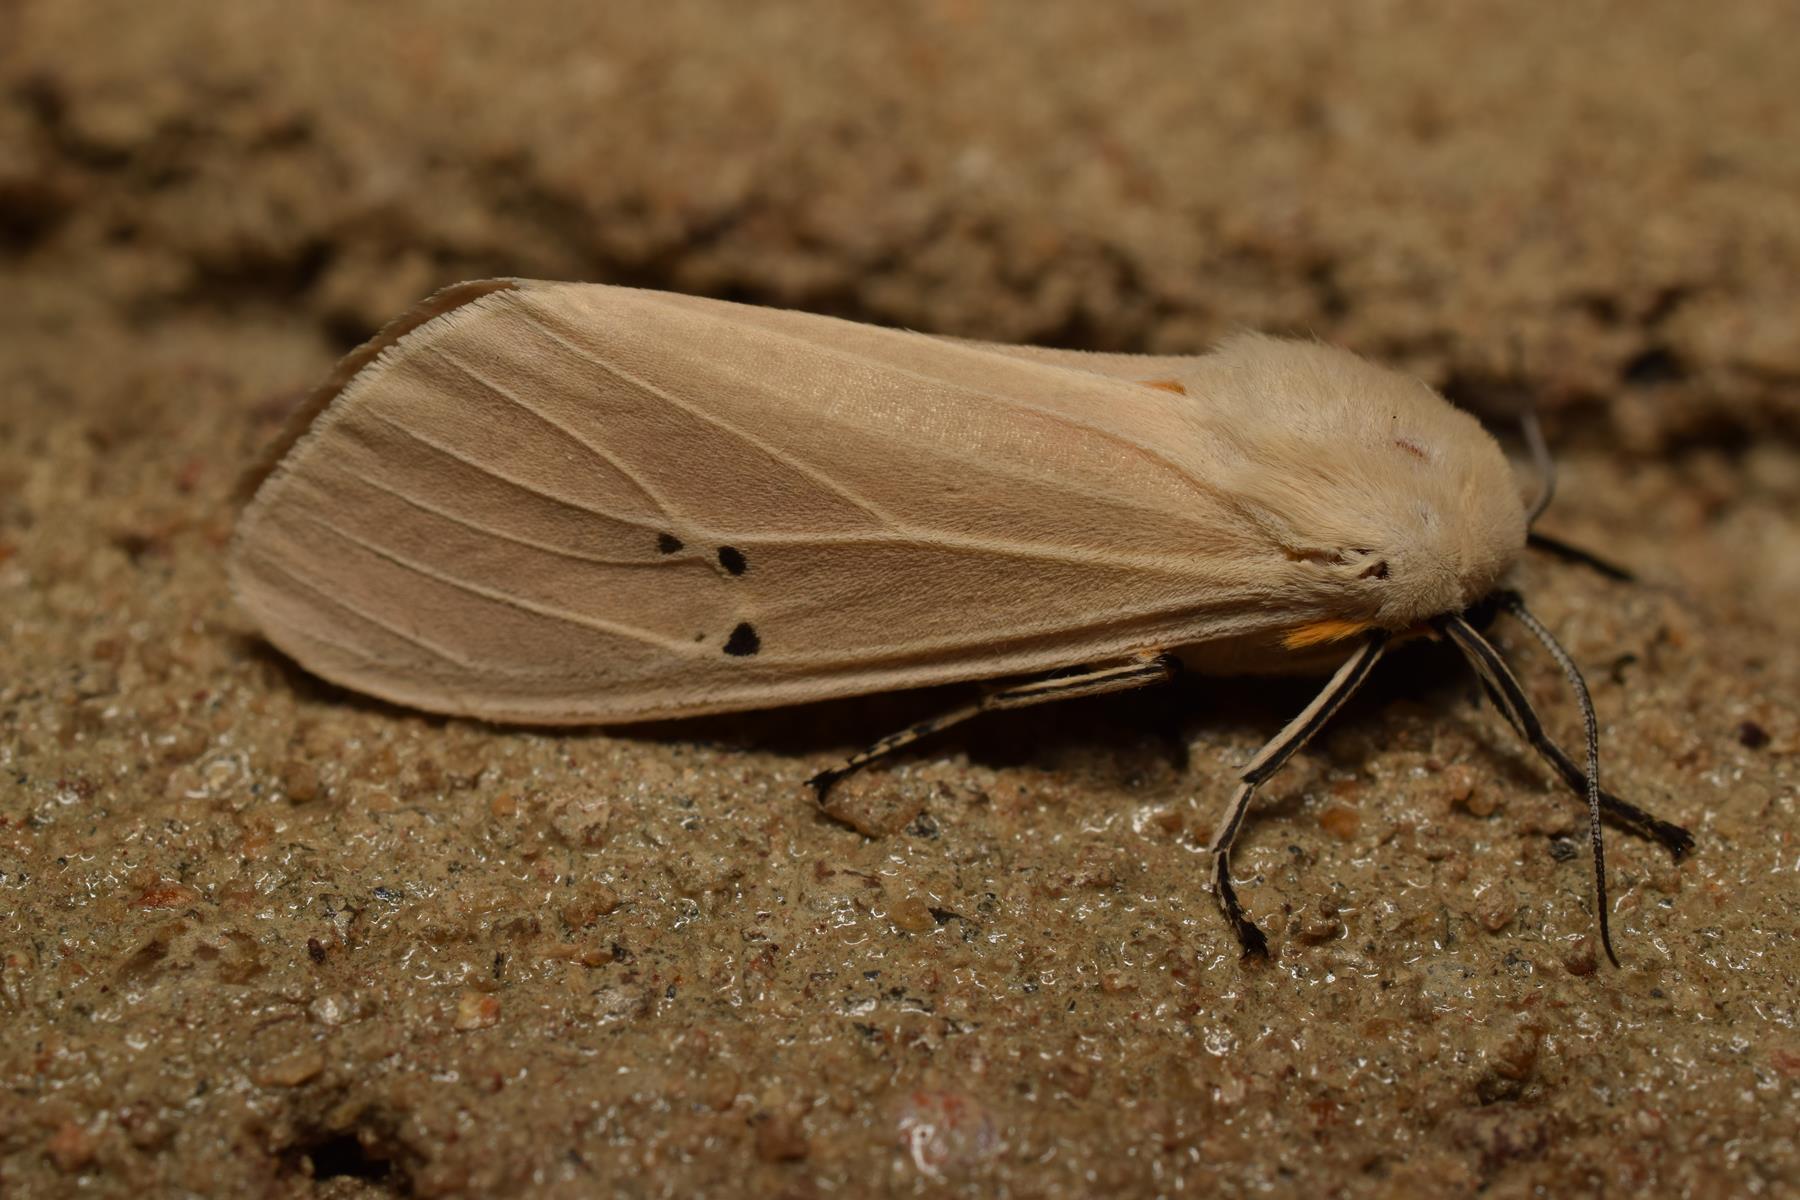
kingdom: Animalia
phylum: Arthropoda
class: Insecta
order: Lepidoptera
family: Erebidae
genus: Creatonotos
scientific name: Creatonotos transiens
